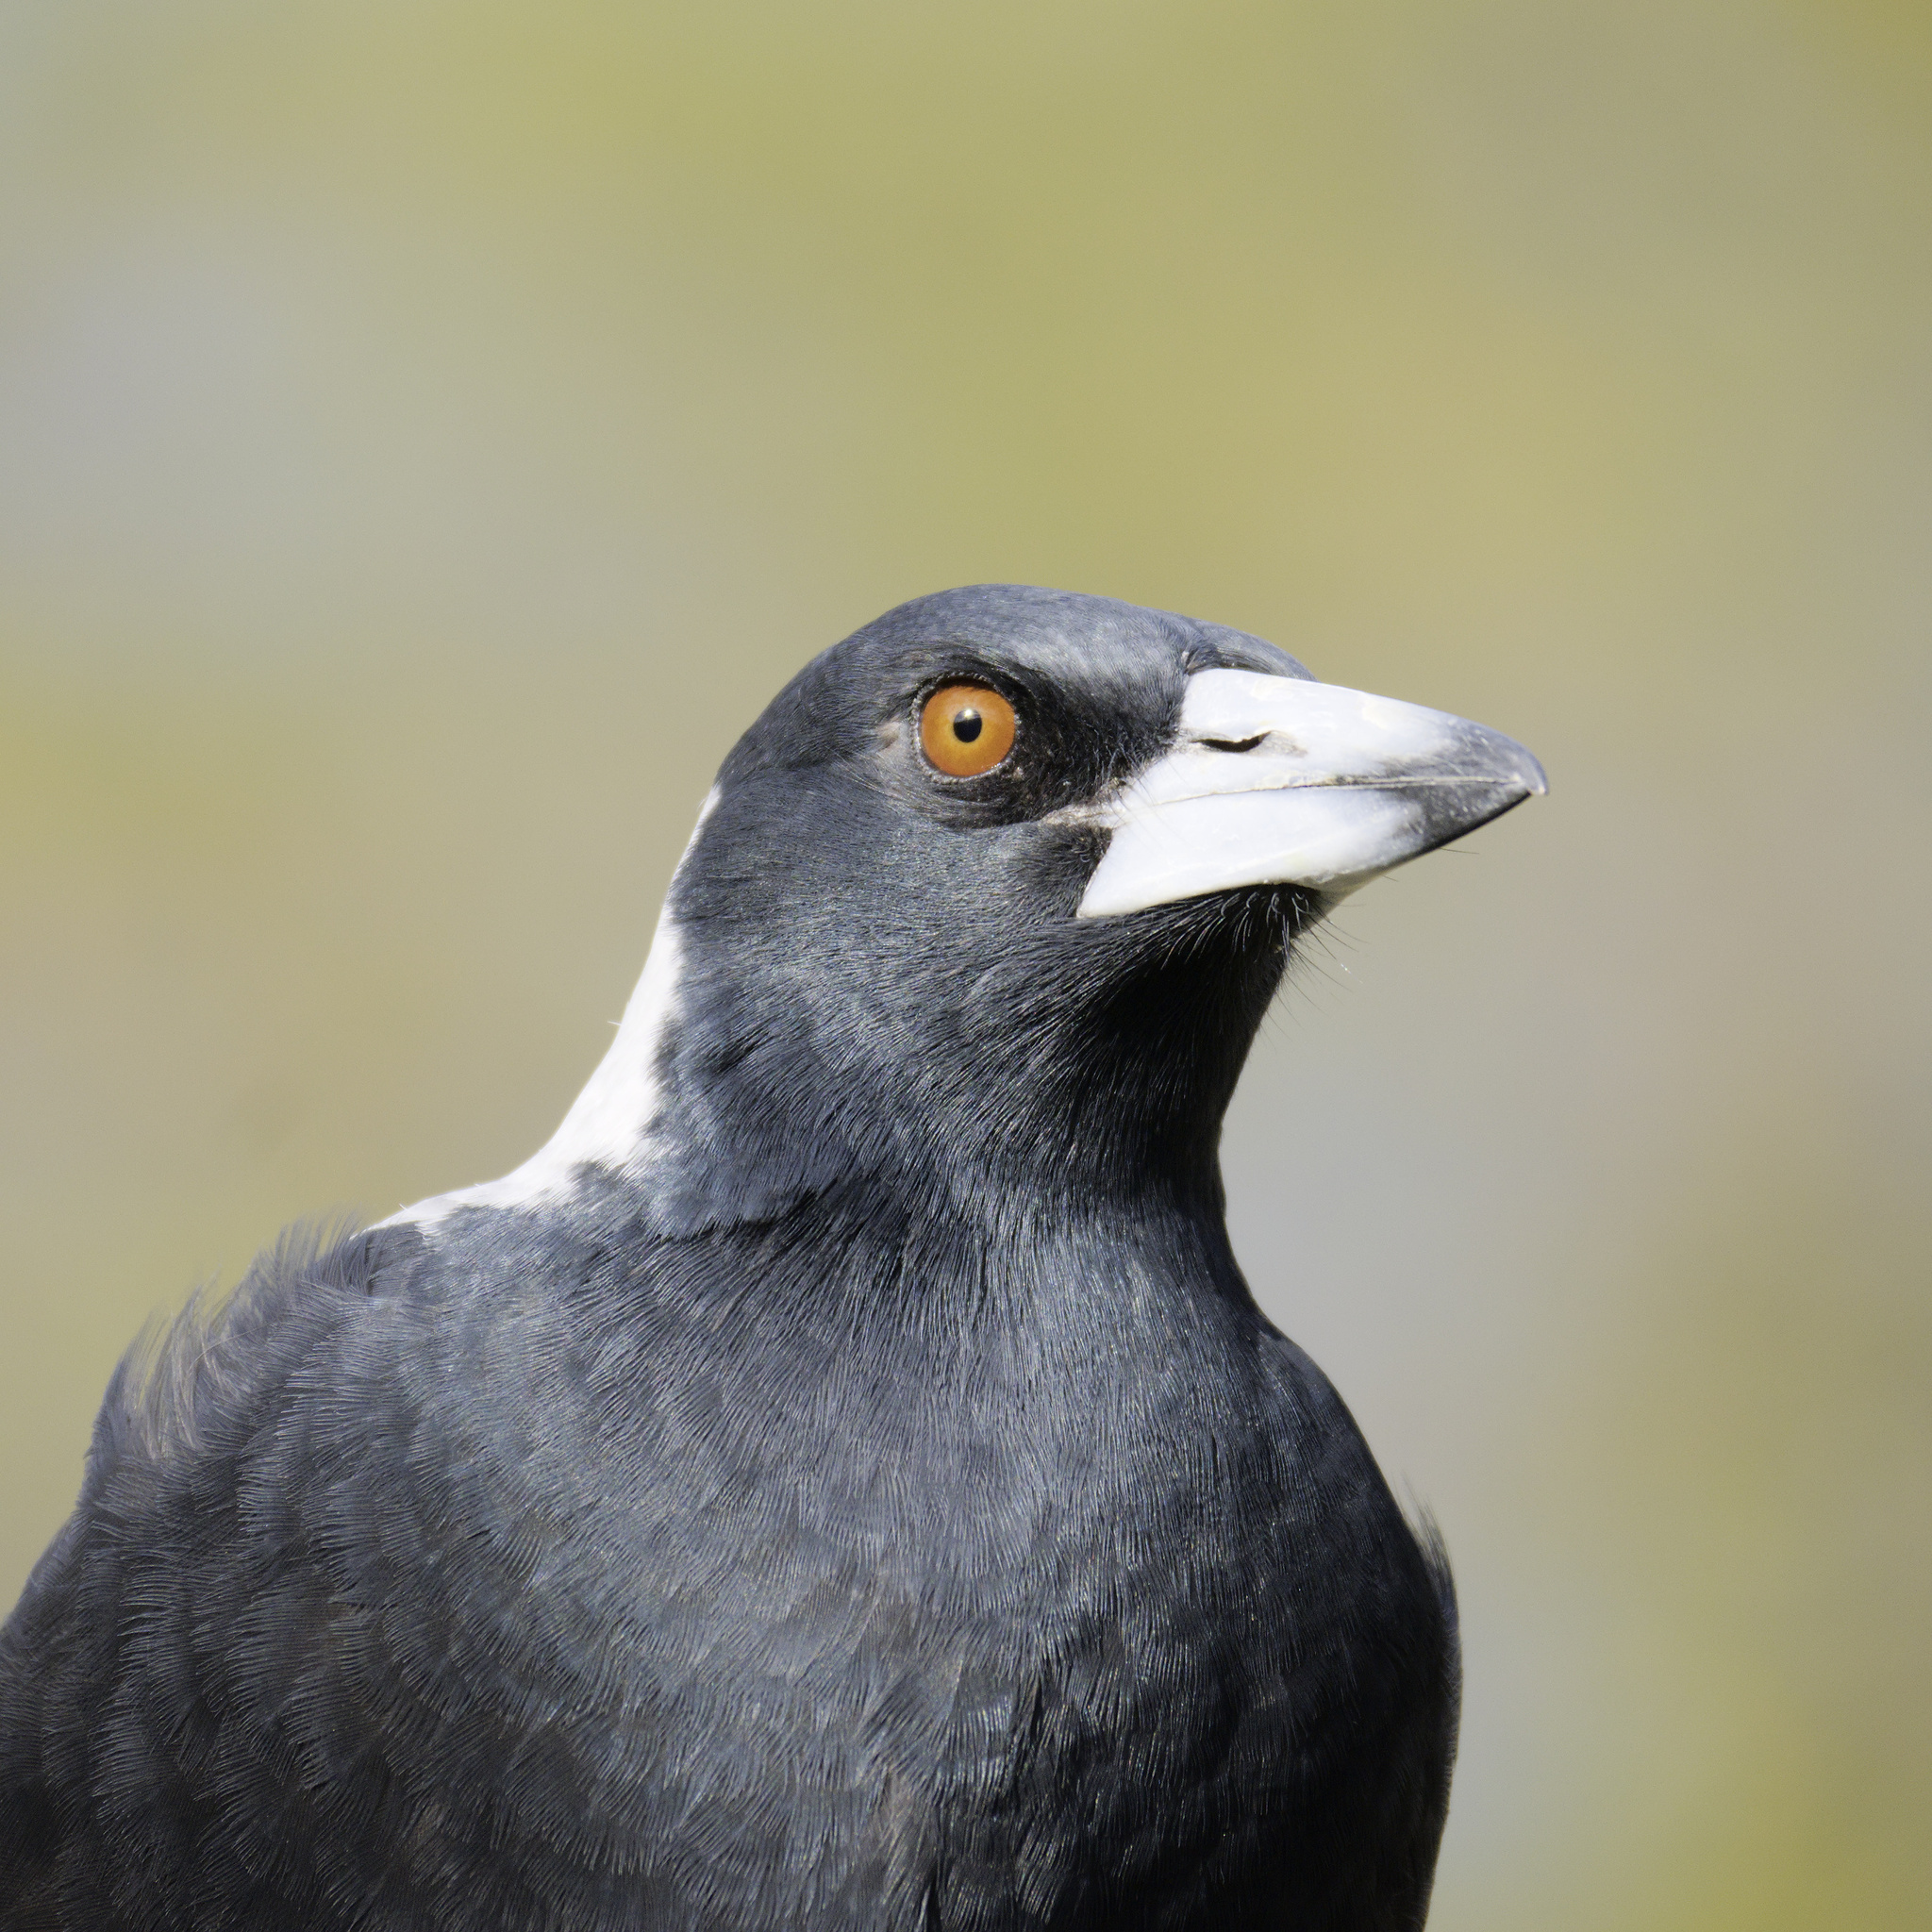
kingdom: Animalia
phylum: Chordata
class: Aves
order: Passeriformes
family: Cracticidae
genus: Gymnorhina
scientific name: Gymnorhina tibicen
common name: Australian magpie
